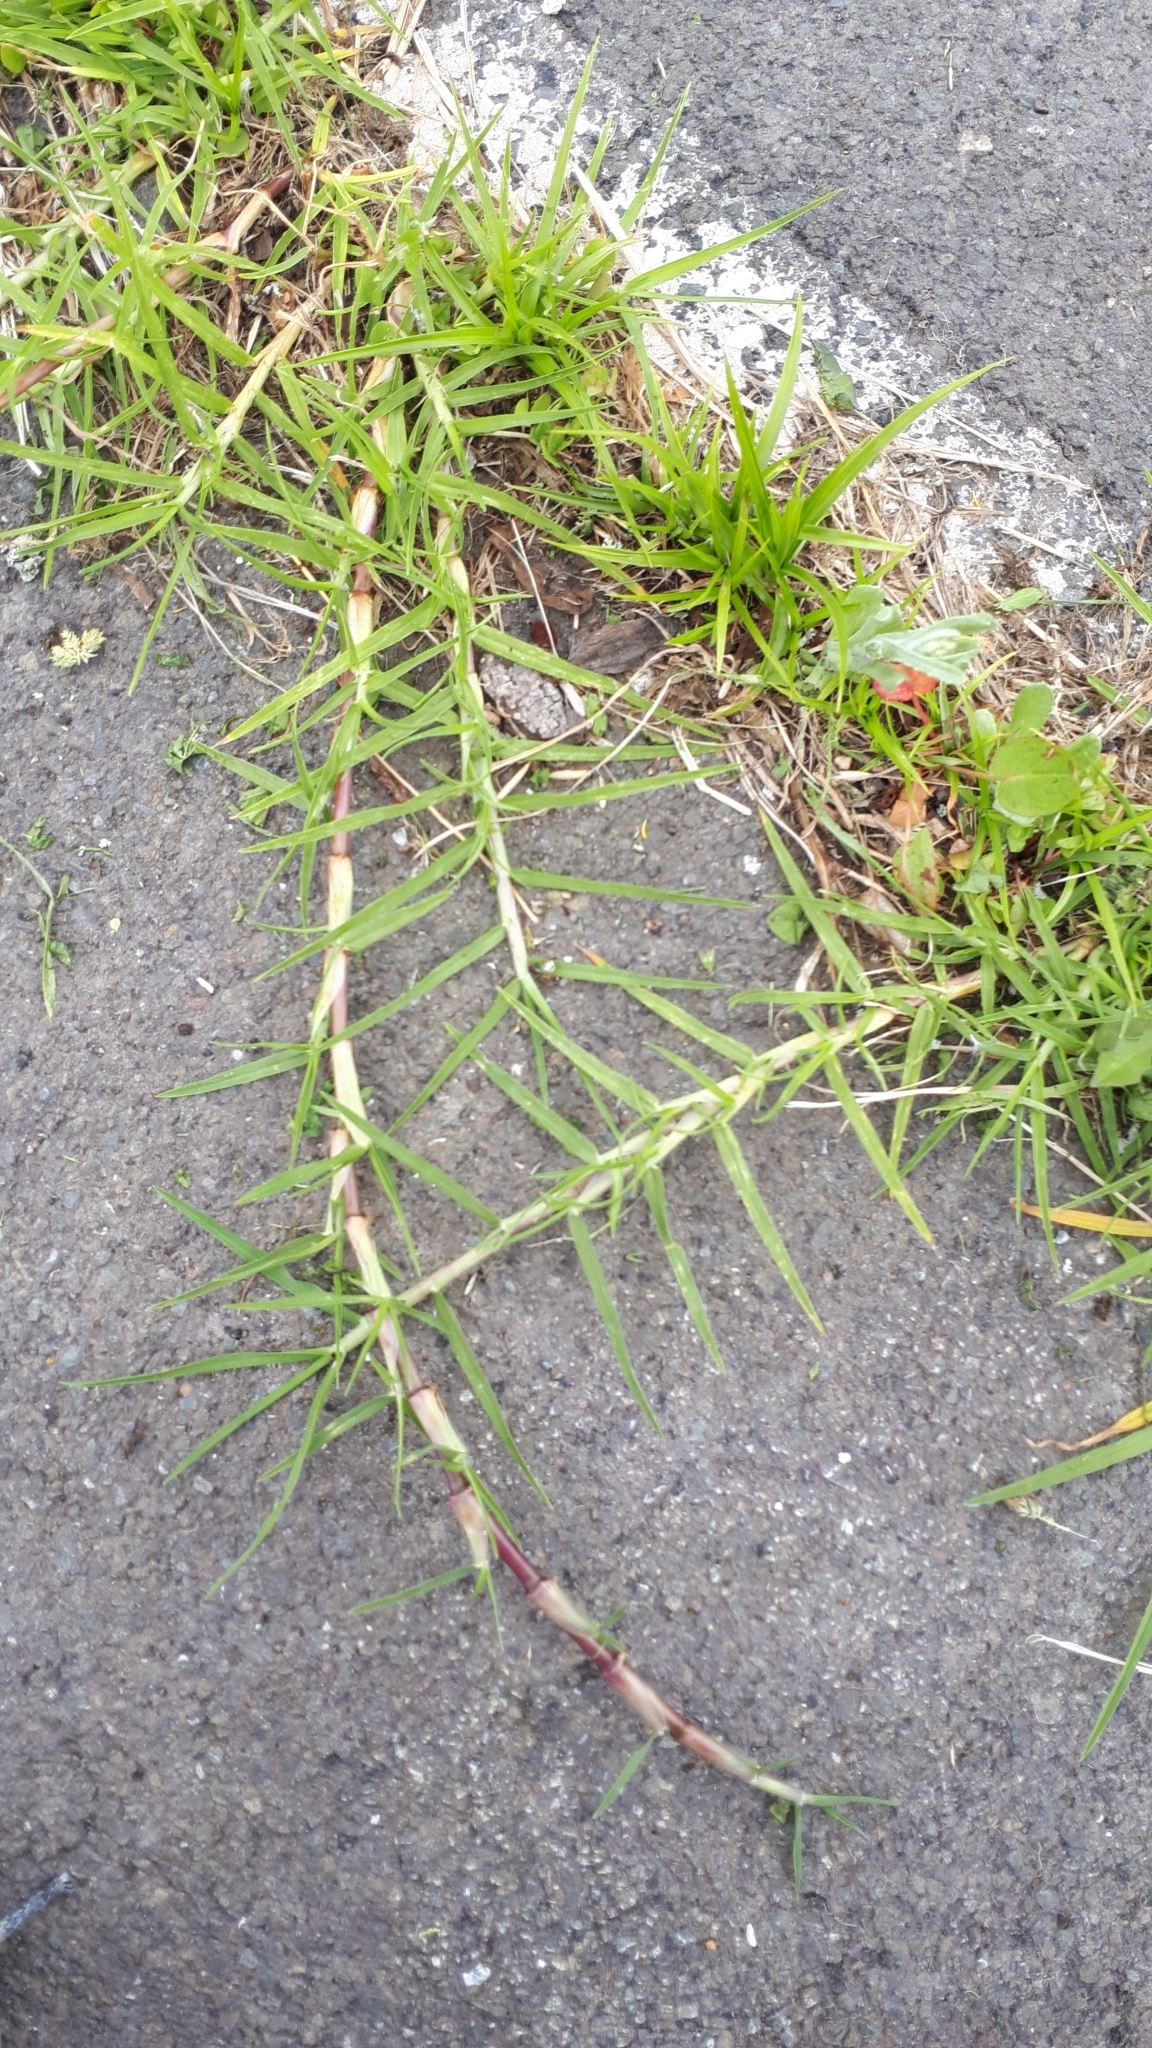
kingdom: Plantae
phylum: Tracheophyta
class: Liliopsida
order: Poales
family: Poaceae
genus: Cenchrus
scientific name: Cenchrus clandestinus
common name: Kikuyugrass
